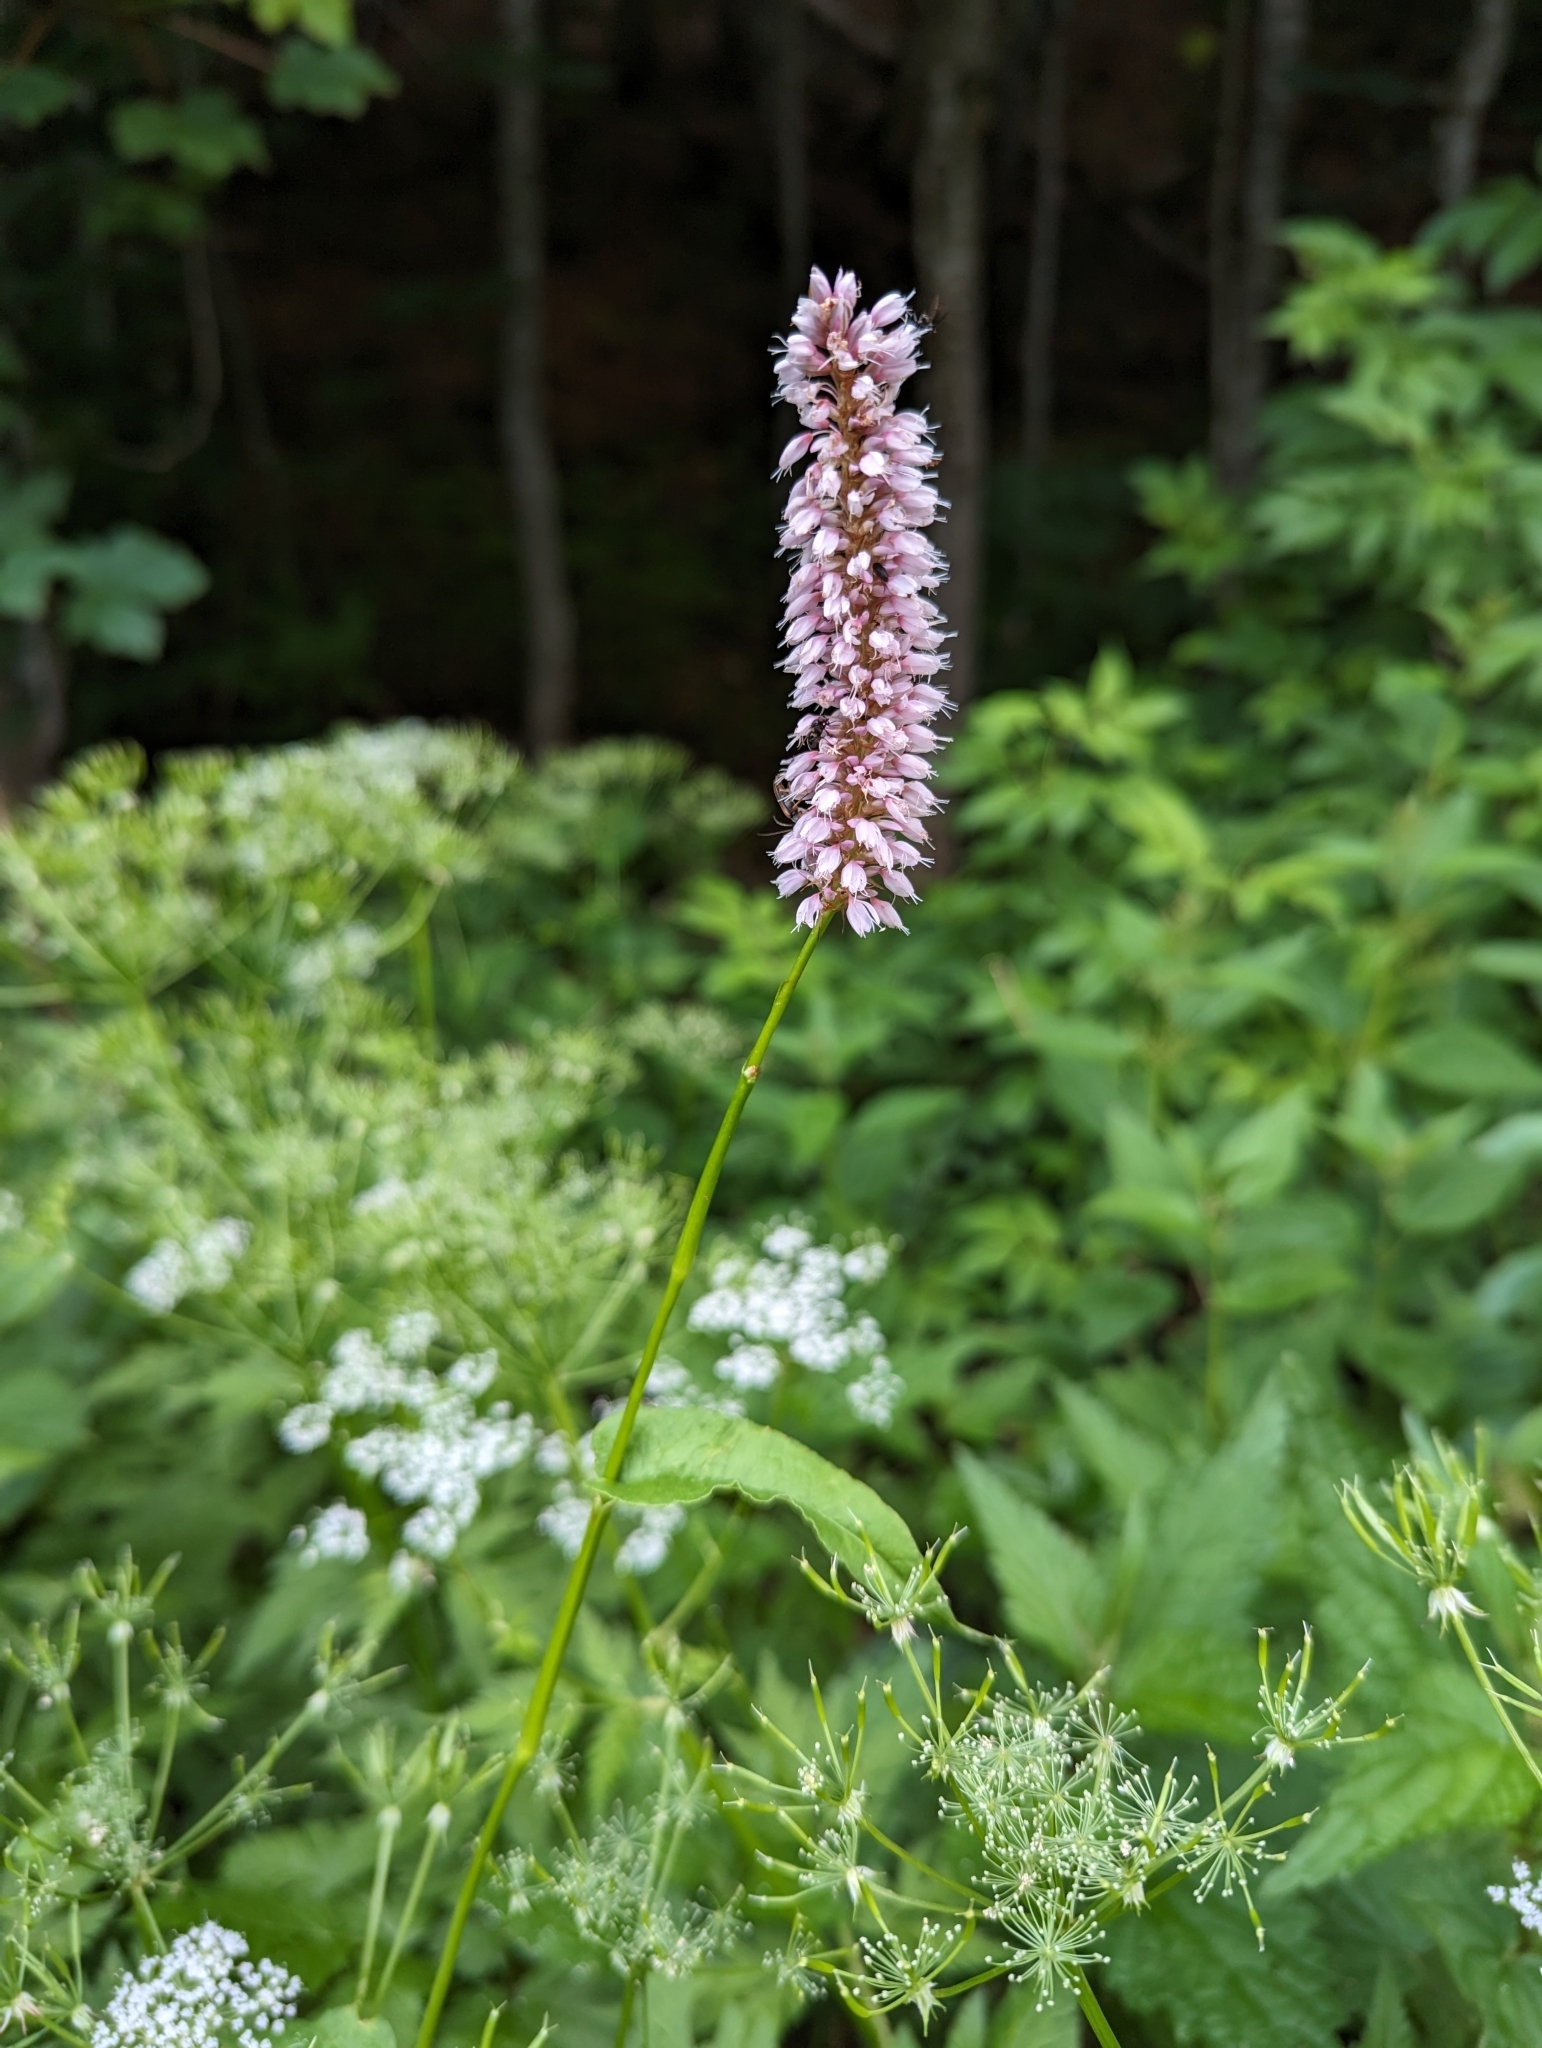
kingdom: Plantae
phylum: Tracheophyta
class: Magnoliopsida
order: Caryophyllales
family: Polygonaceae
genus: Bistorta
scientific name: Bistorta officinalis
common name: Common bistort
